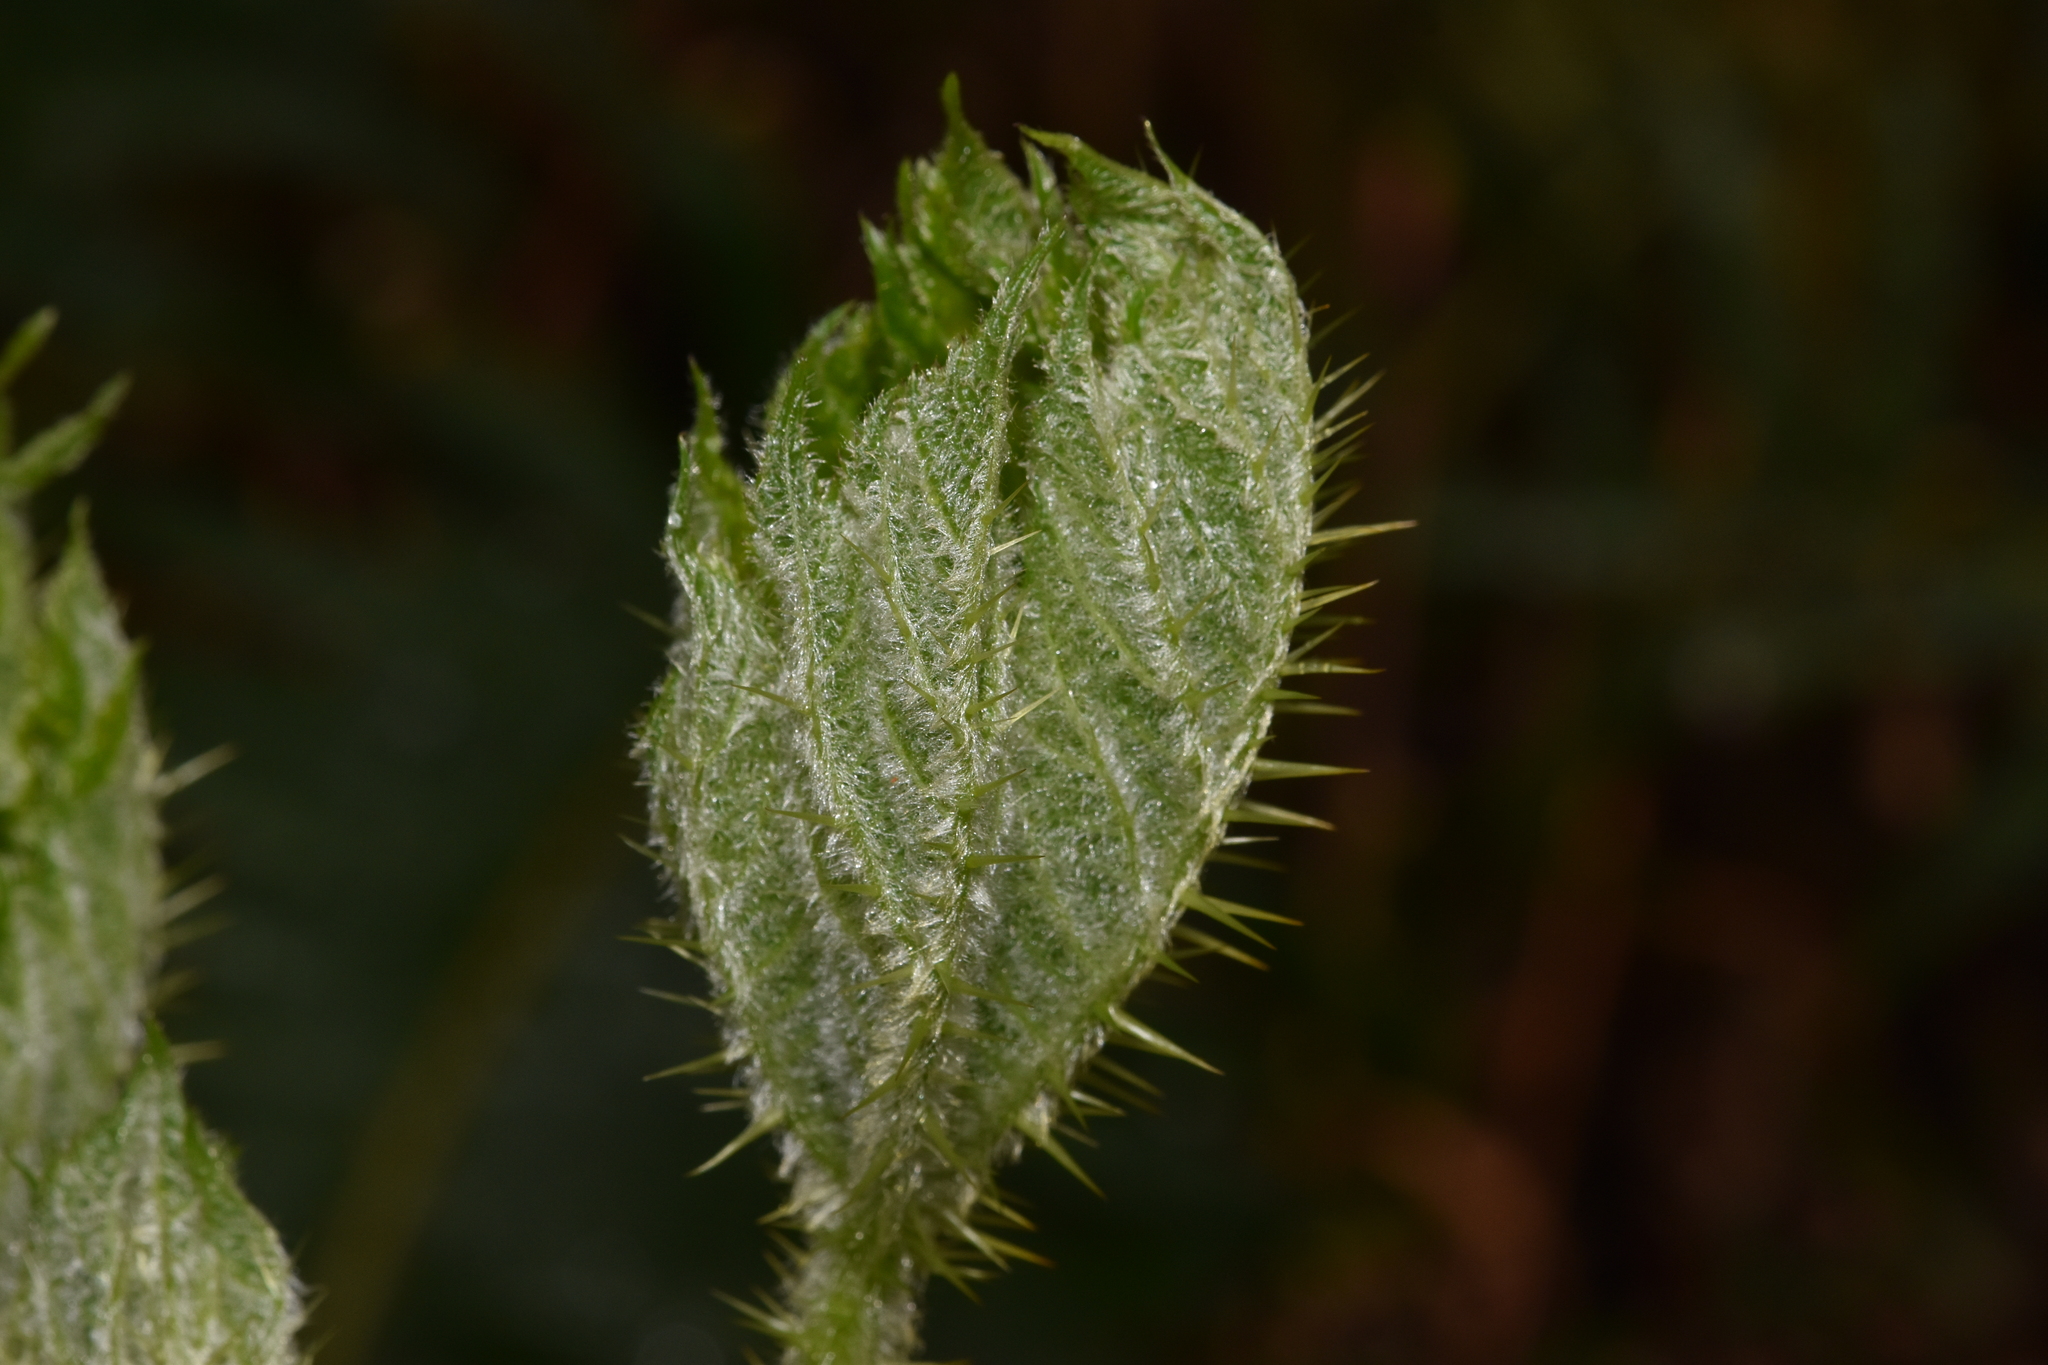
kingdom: Plantae
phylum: Tracheophyta
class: Magnoliopsida
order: Apiales
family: Araliaceae
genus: Oplopanax
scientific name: Oplopanax horridus
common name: Devil's walking-stick
